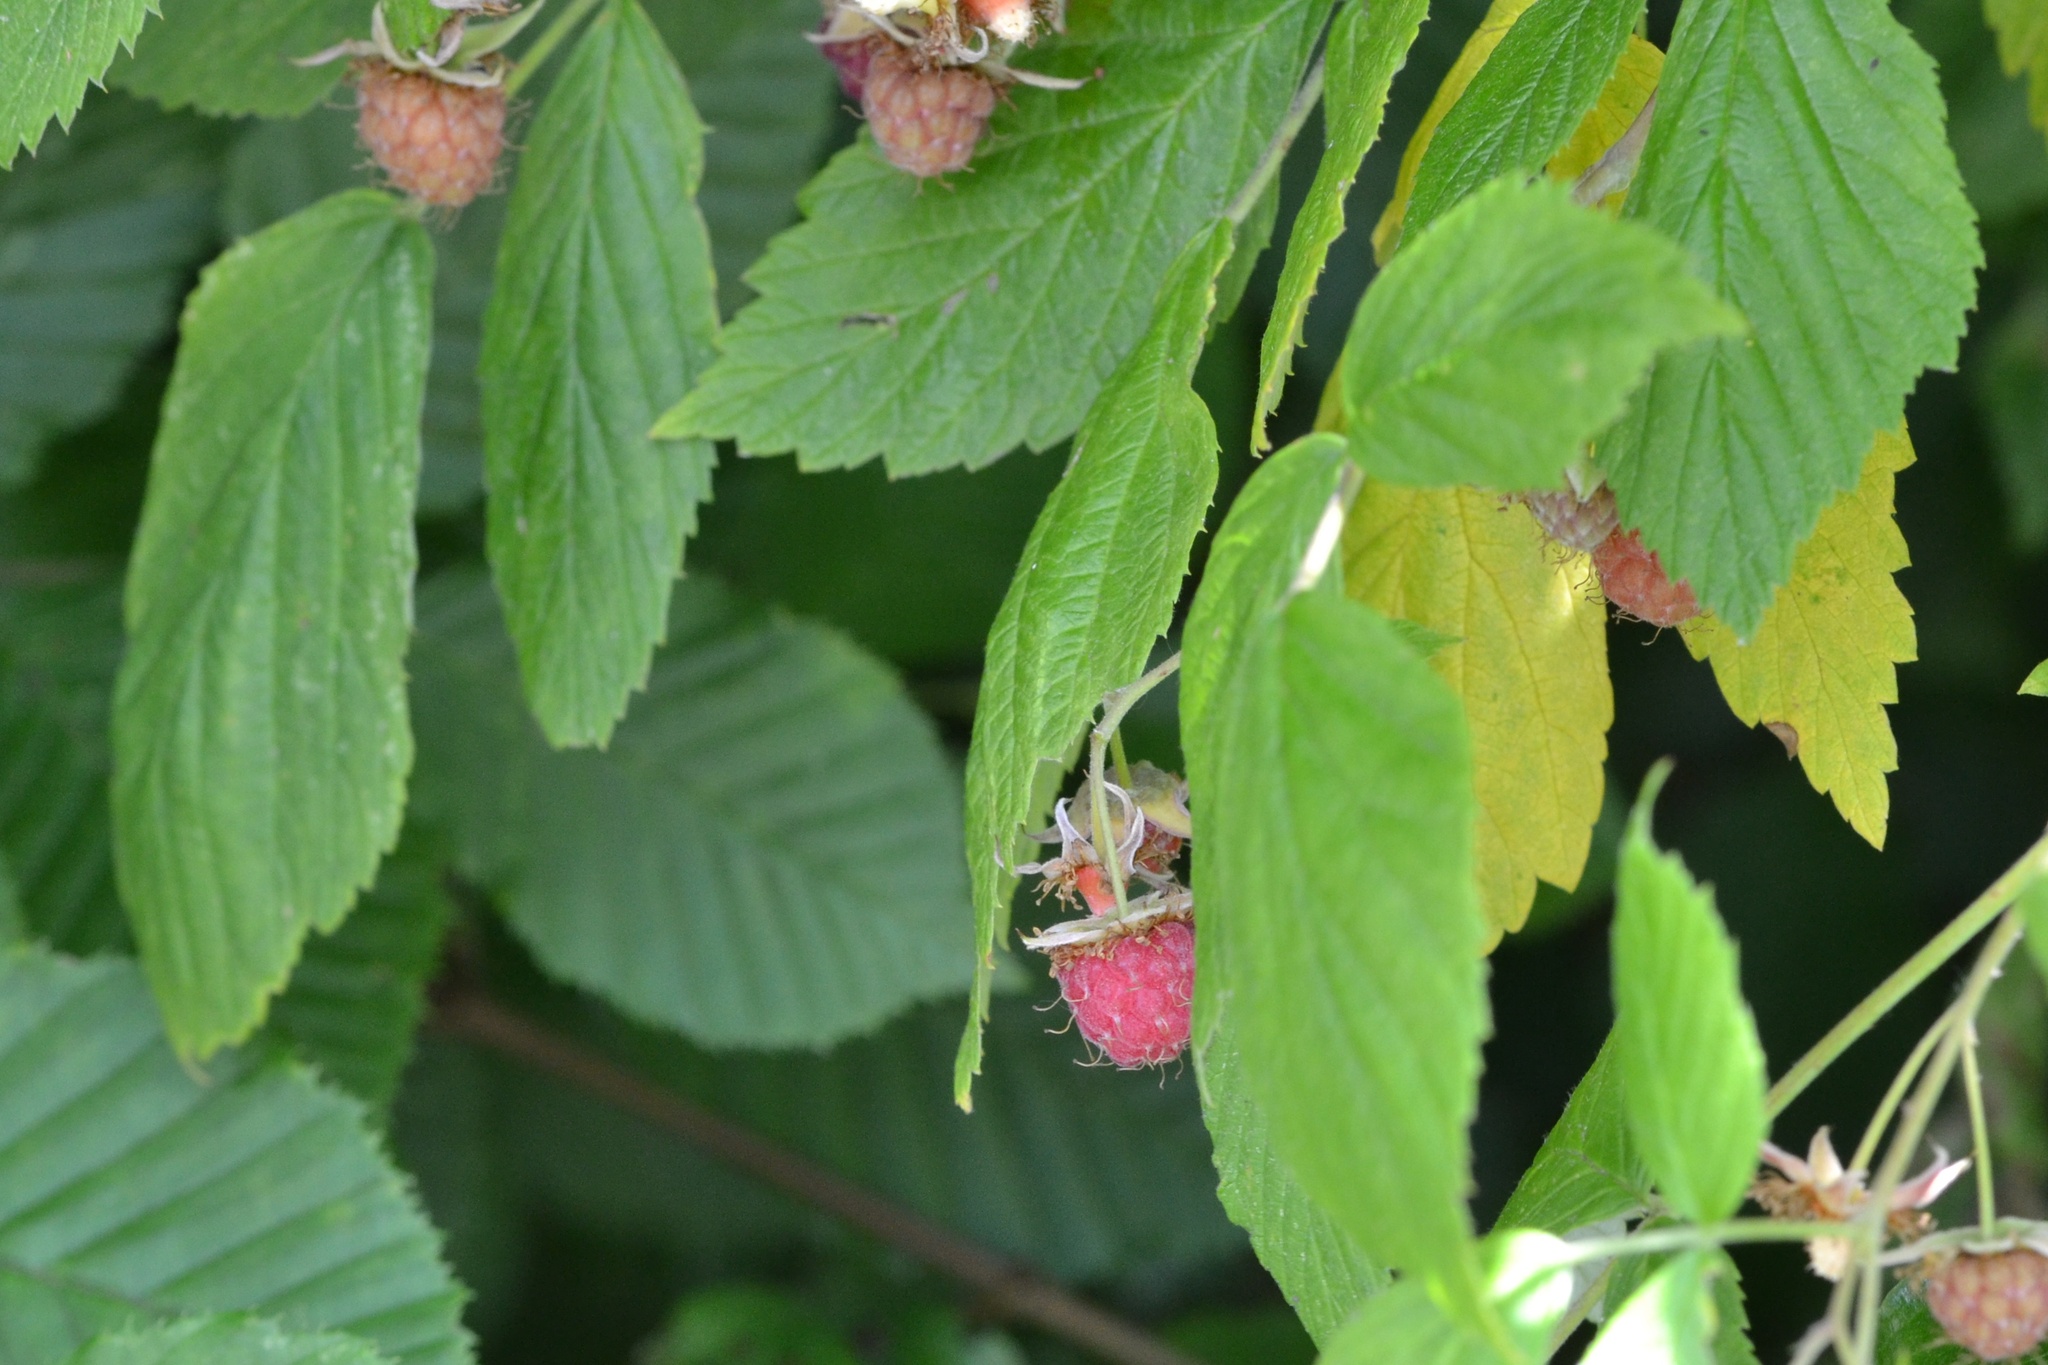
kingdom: Plantae
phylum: Tracheophyta
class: Magnoliopsida
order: Rosales
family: Rosaceae
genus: Rubus
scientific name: Rubus idaeus
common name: Raspberry
